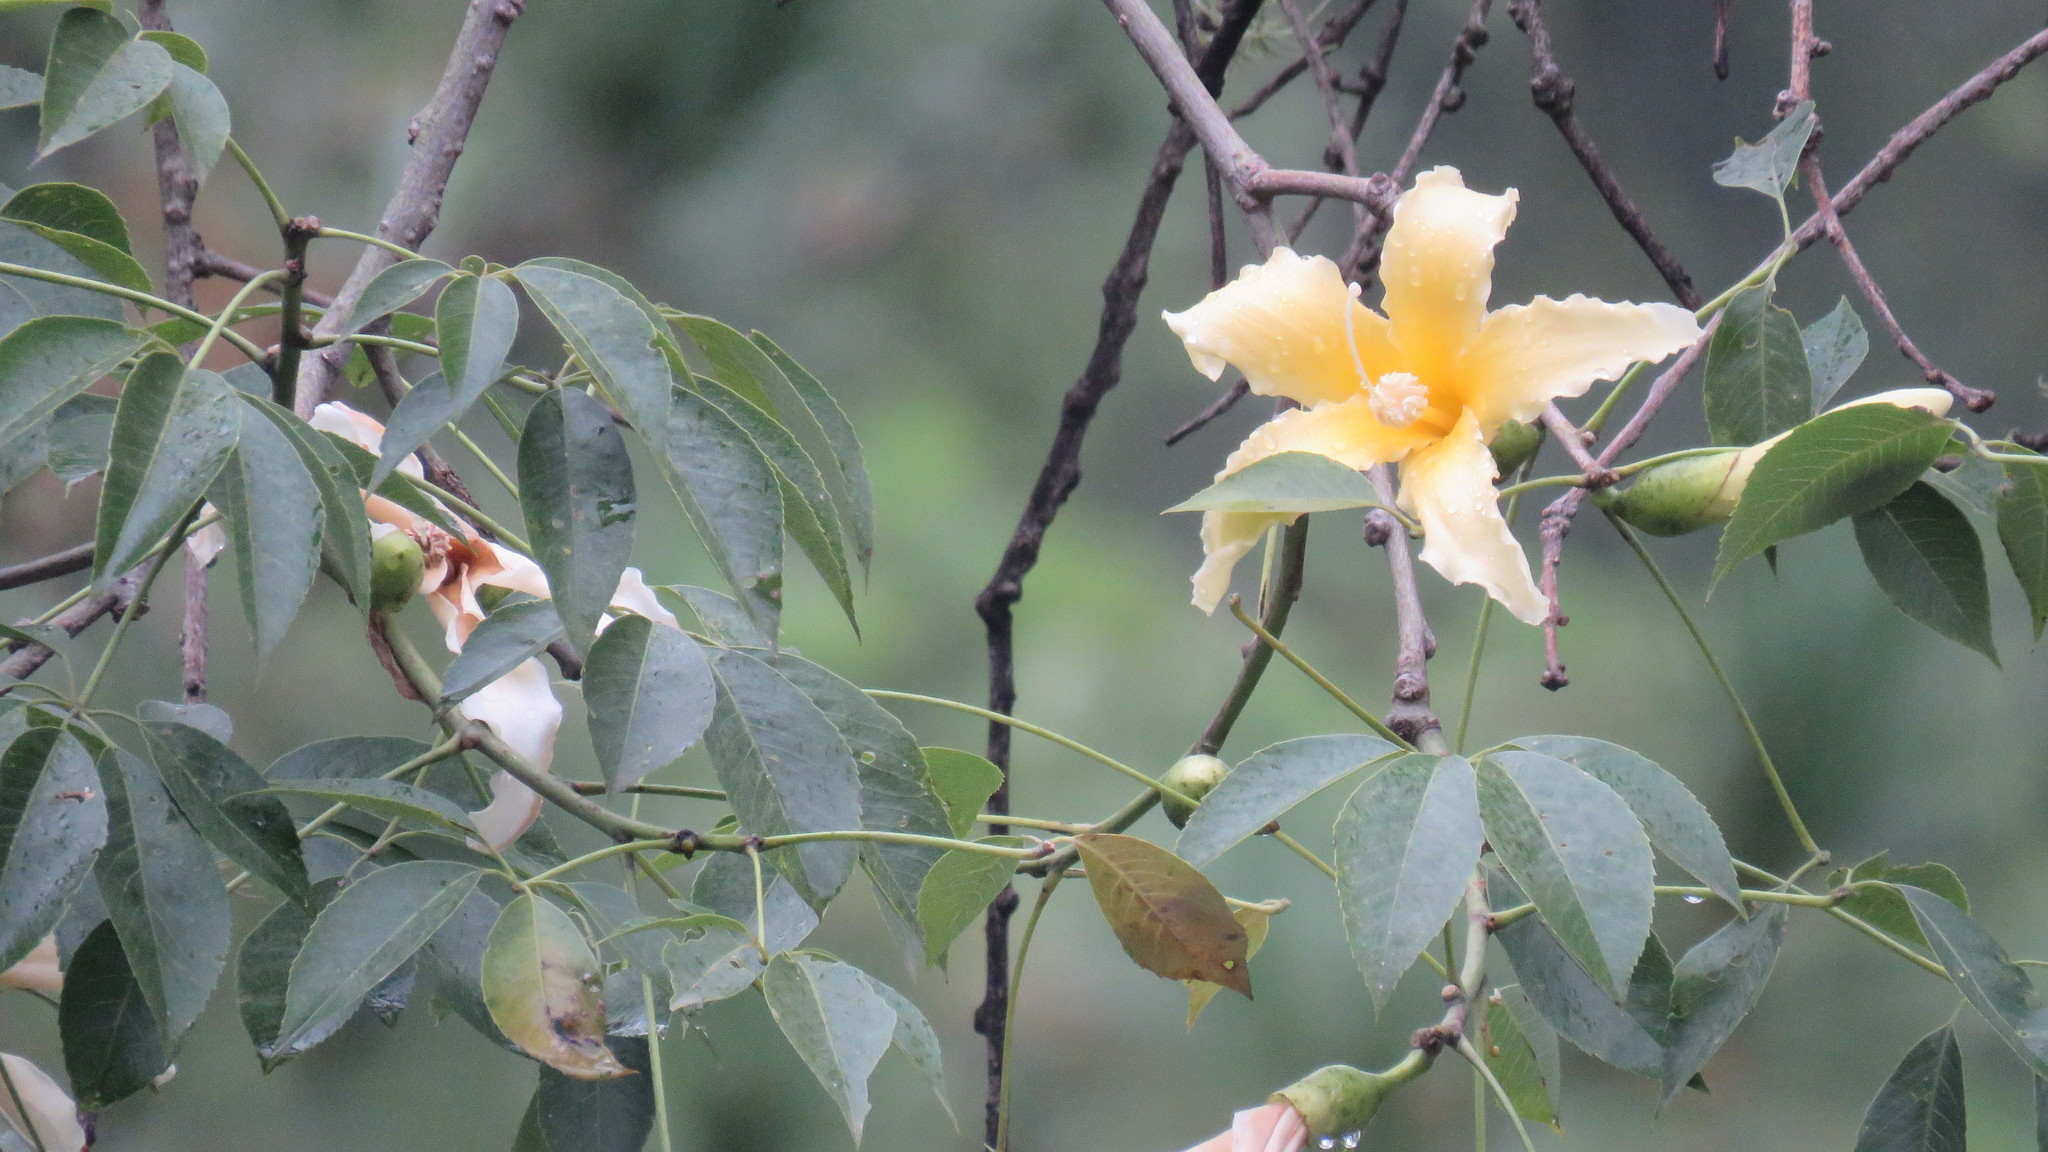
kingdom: Plantae
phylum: Tracheophyta
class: Magnoliopsida
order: Malvales
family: Malvaceae
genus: Ceiba
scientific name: Ceiba chodatii
